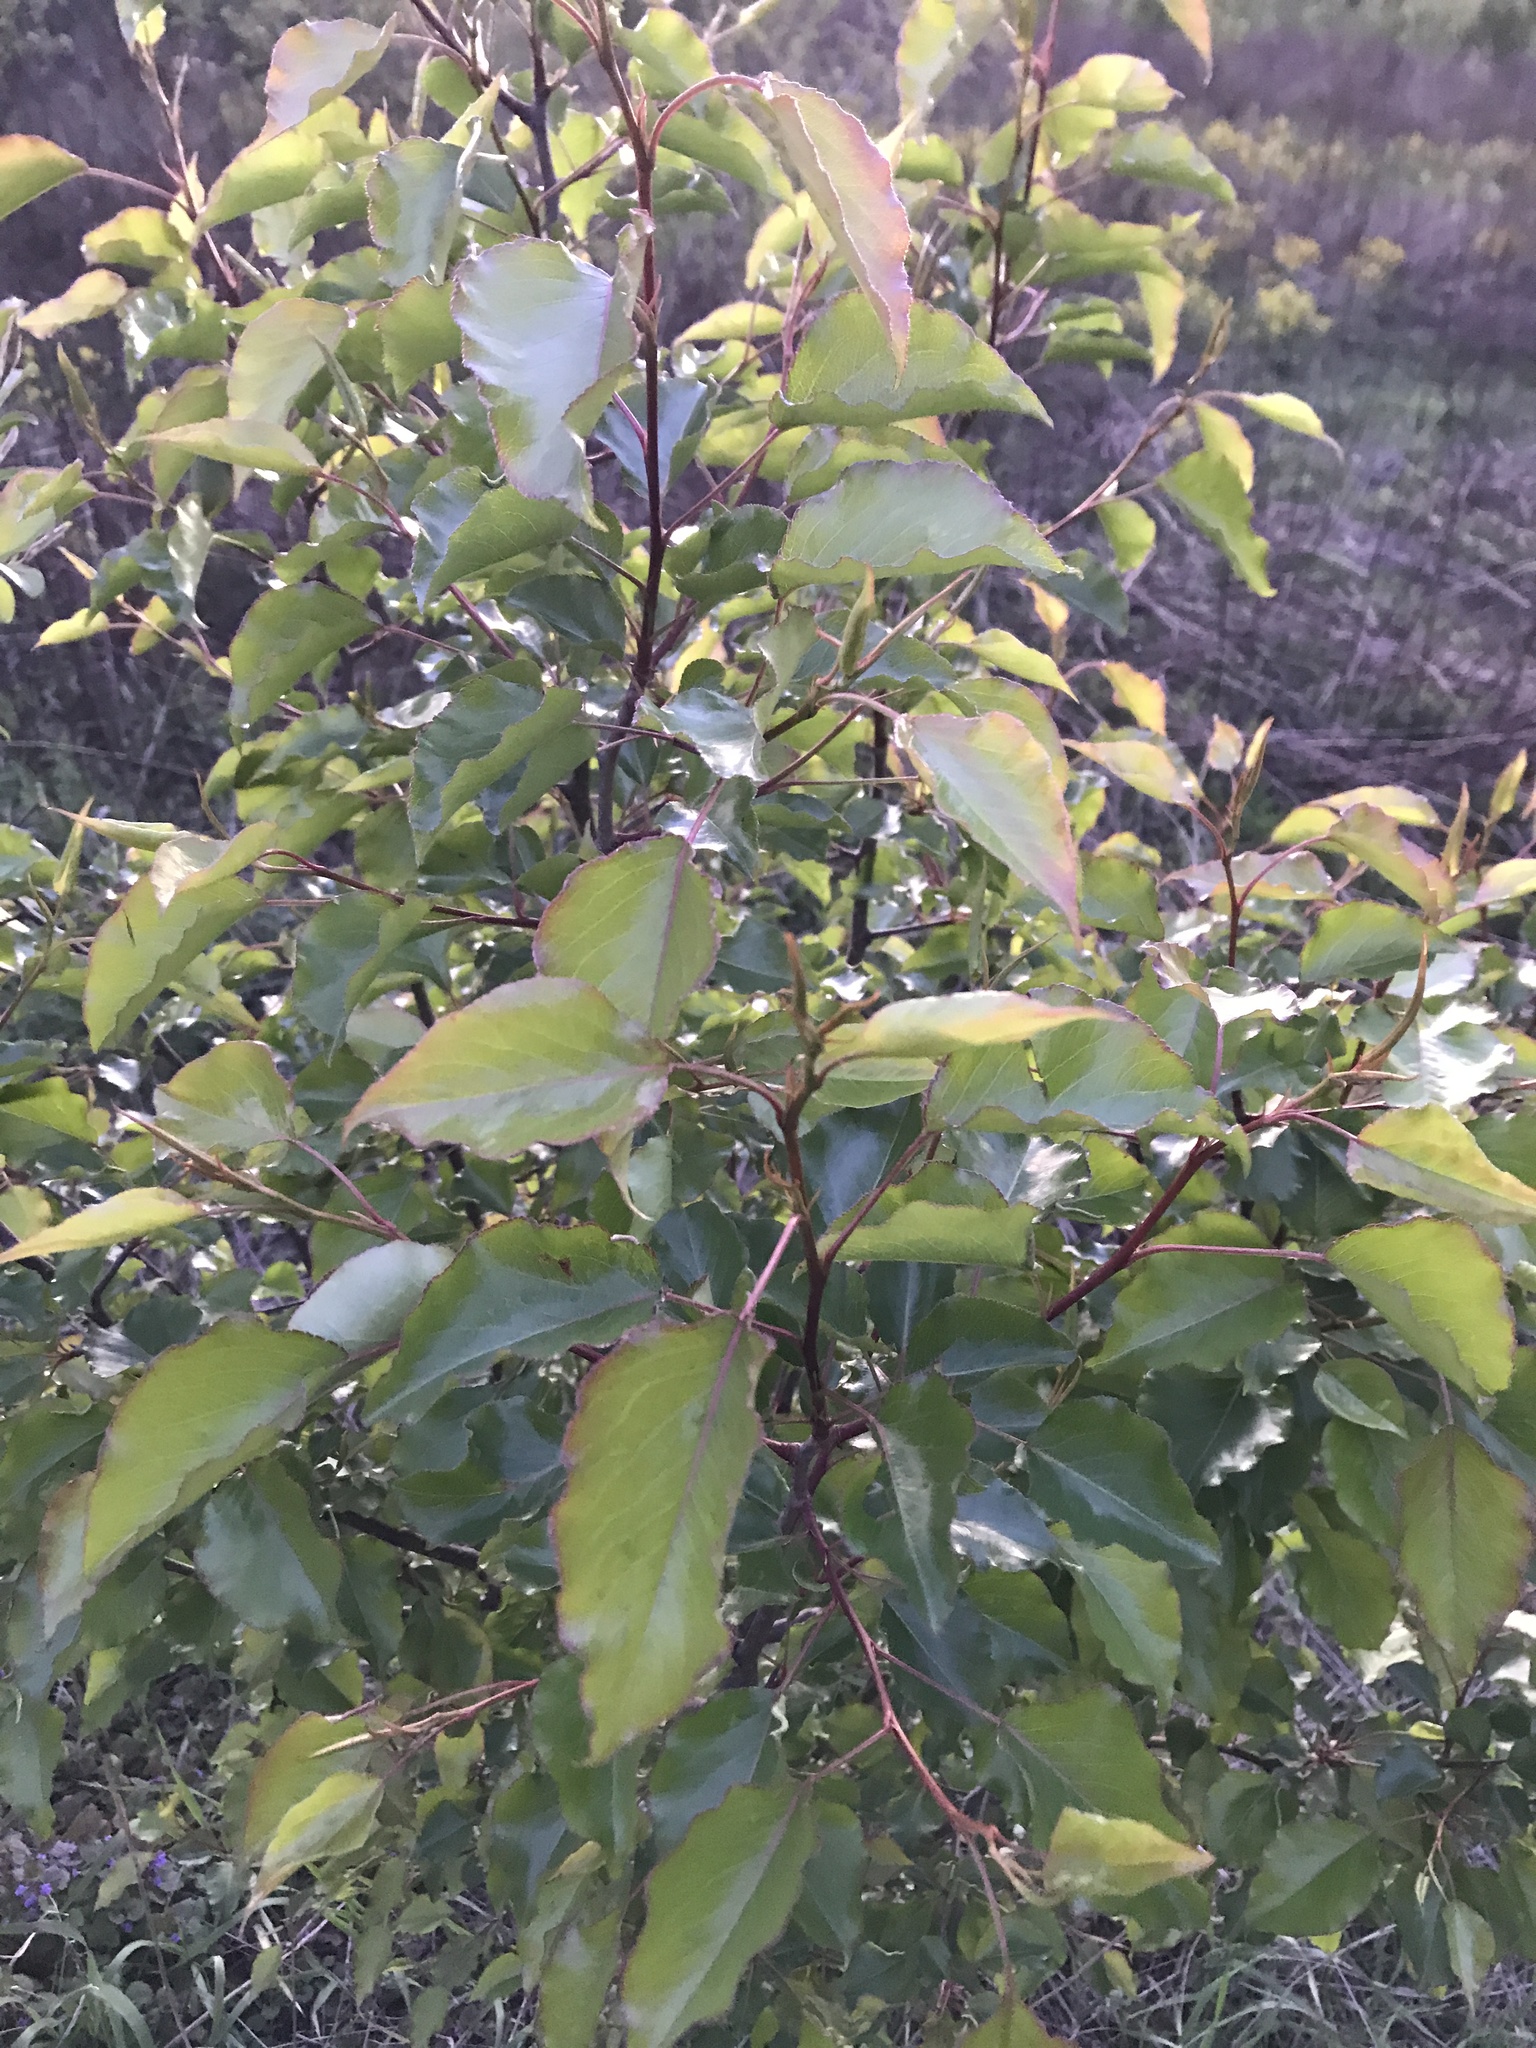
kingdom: Plantae
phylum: Tracheophyta
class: Magnoliopsida
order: Rosales
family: Rosaceae
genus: Pyrus
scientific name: Pyrus calleryana
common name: Callery pear
